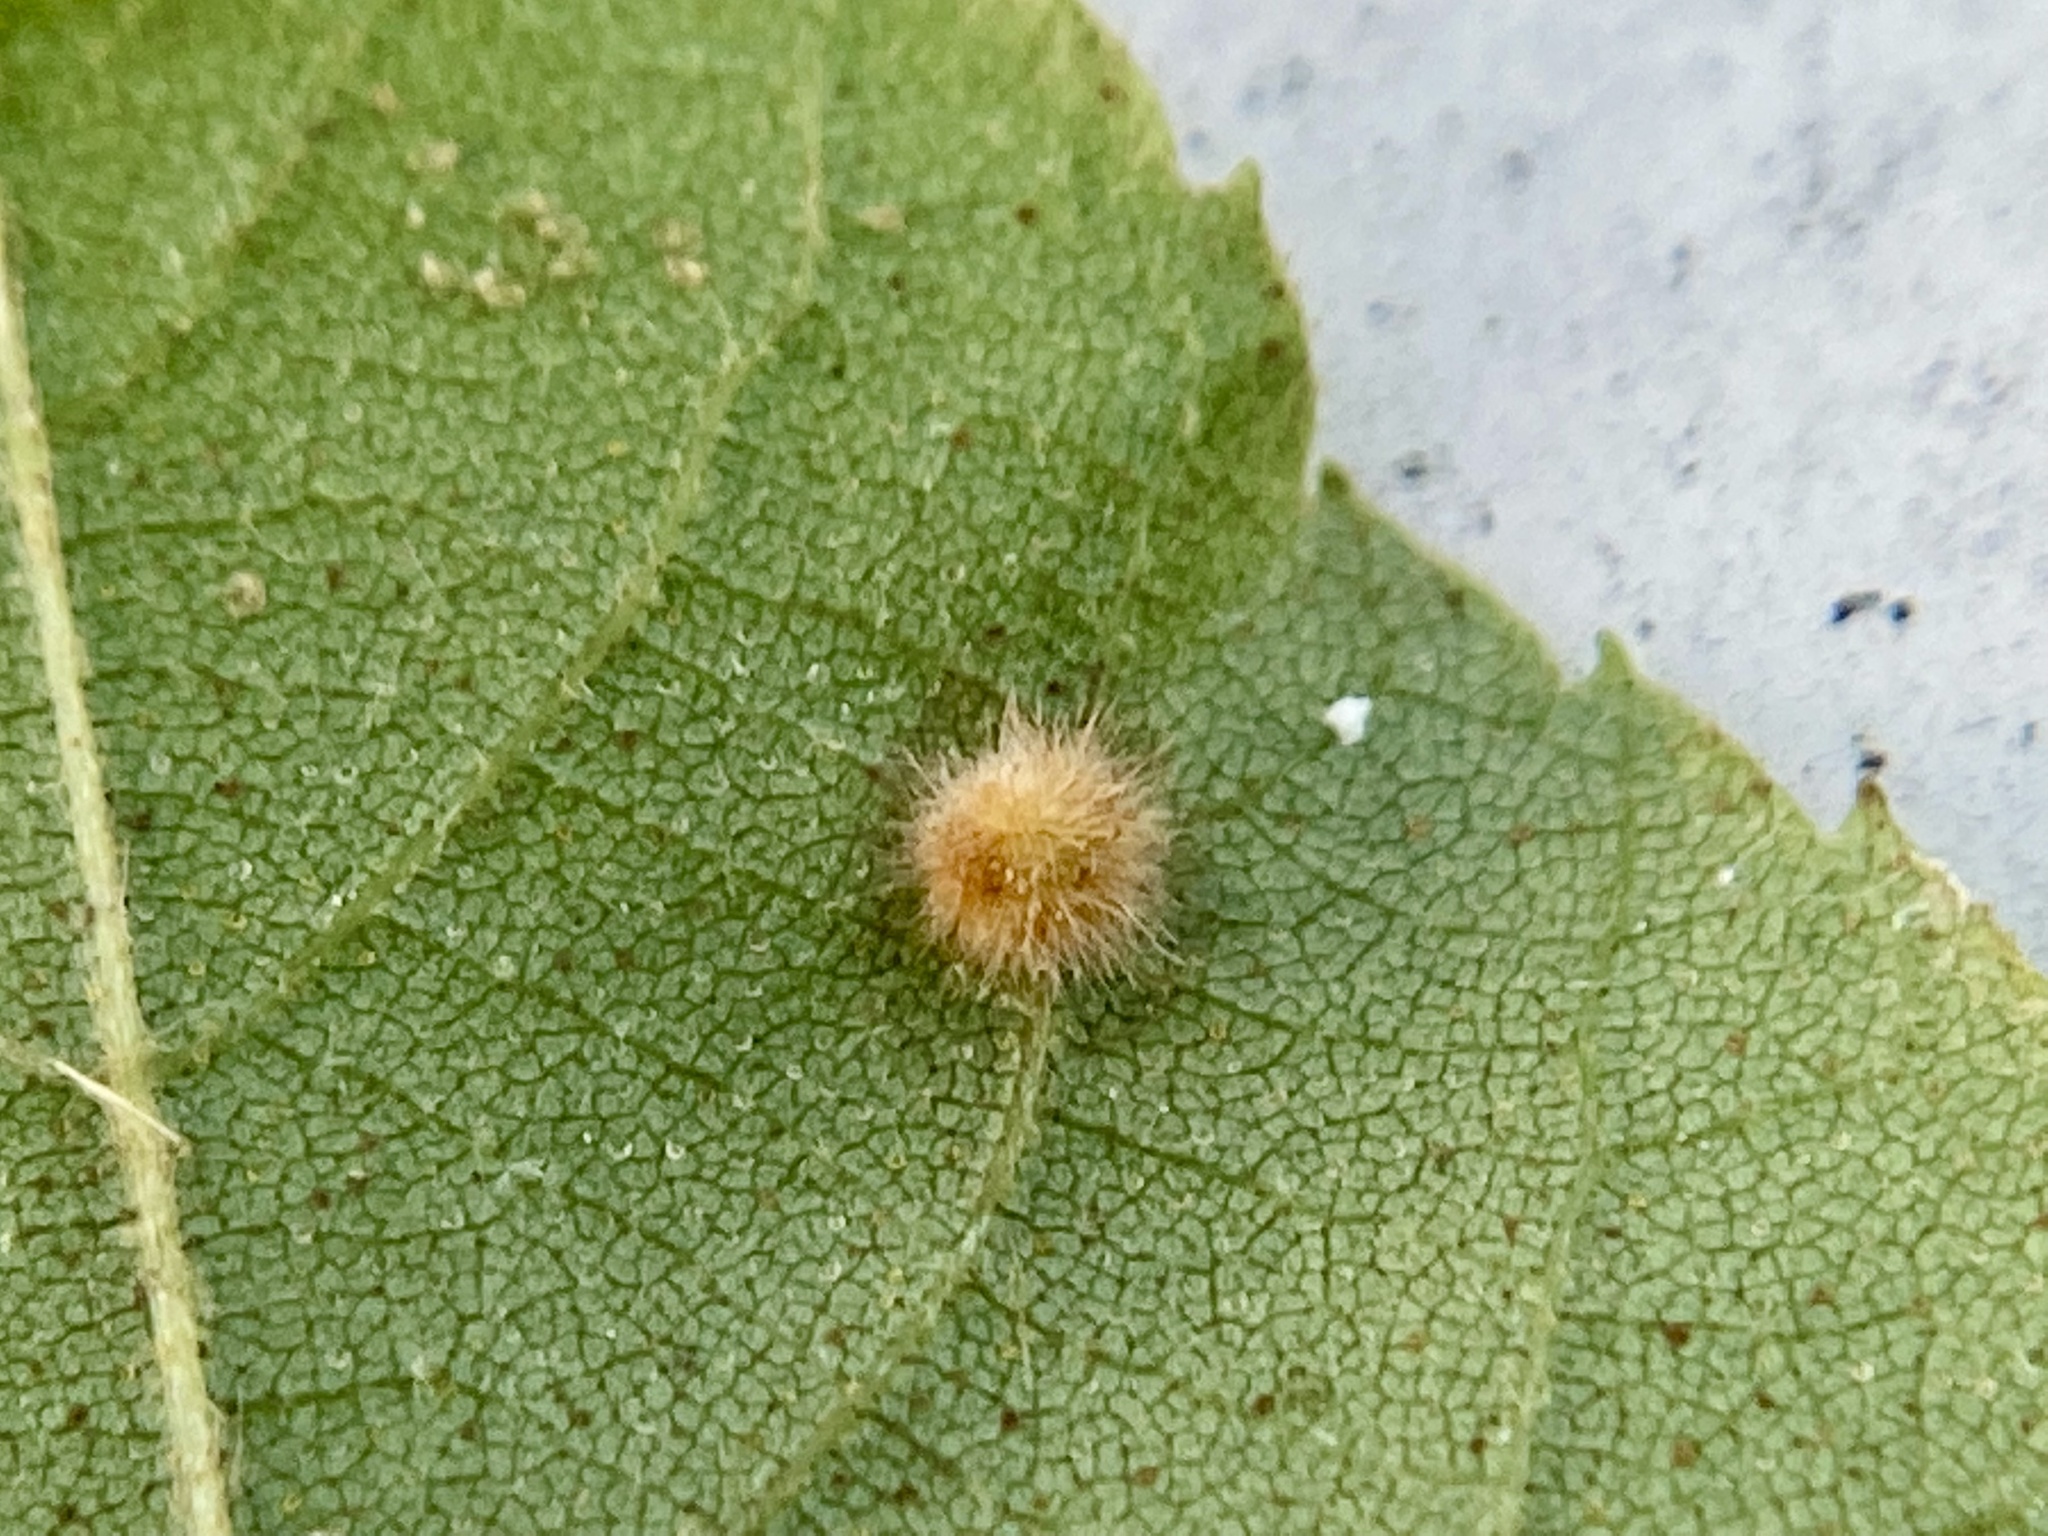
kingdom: Animalia
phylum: Arthropoda
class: Insecta
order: Diptera
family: Cecidomyiidae
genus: Caryomyia
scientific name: Caryomyia purpurea
